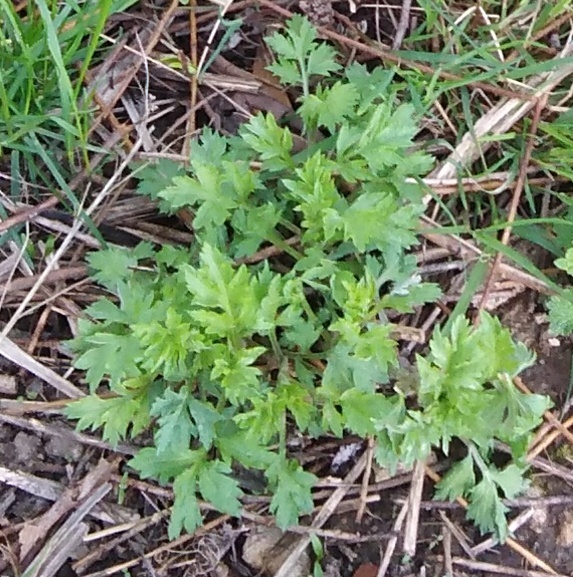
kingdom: Plantae
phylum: Tracheophyta
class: Magnoliopsida
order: Asterales
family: Asteraceae
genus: Artemisia
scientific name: Artemisia vulgaris
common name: Mugwort
